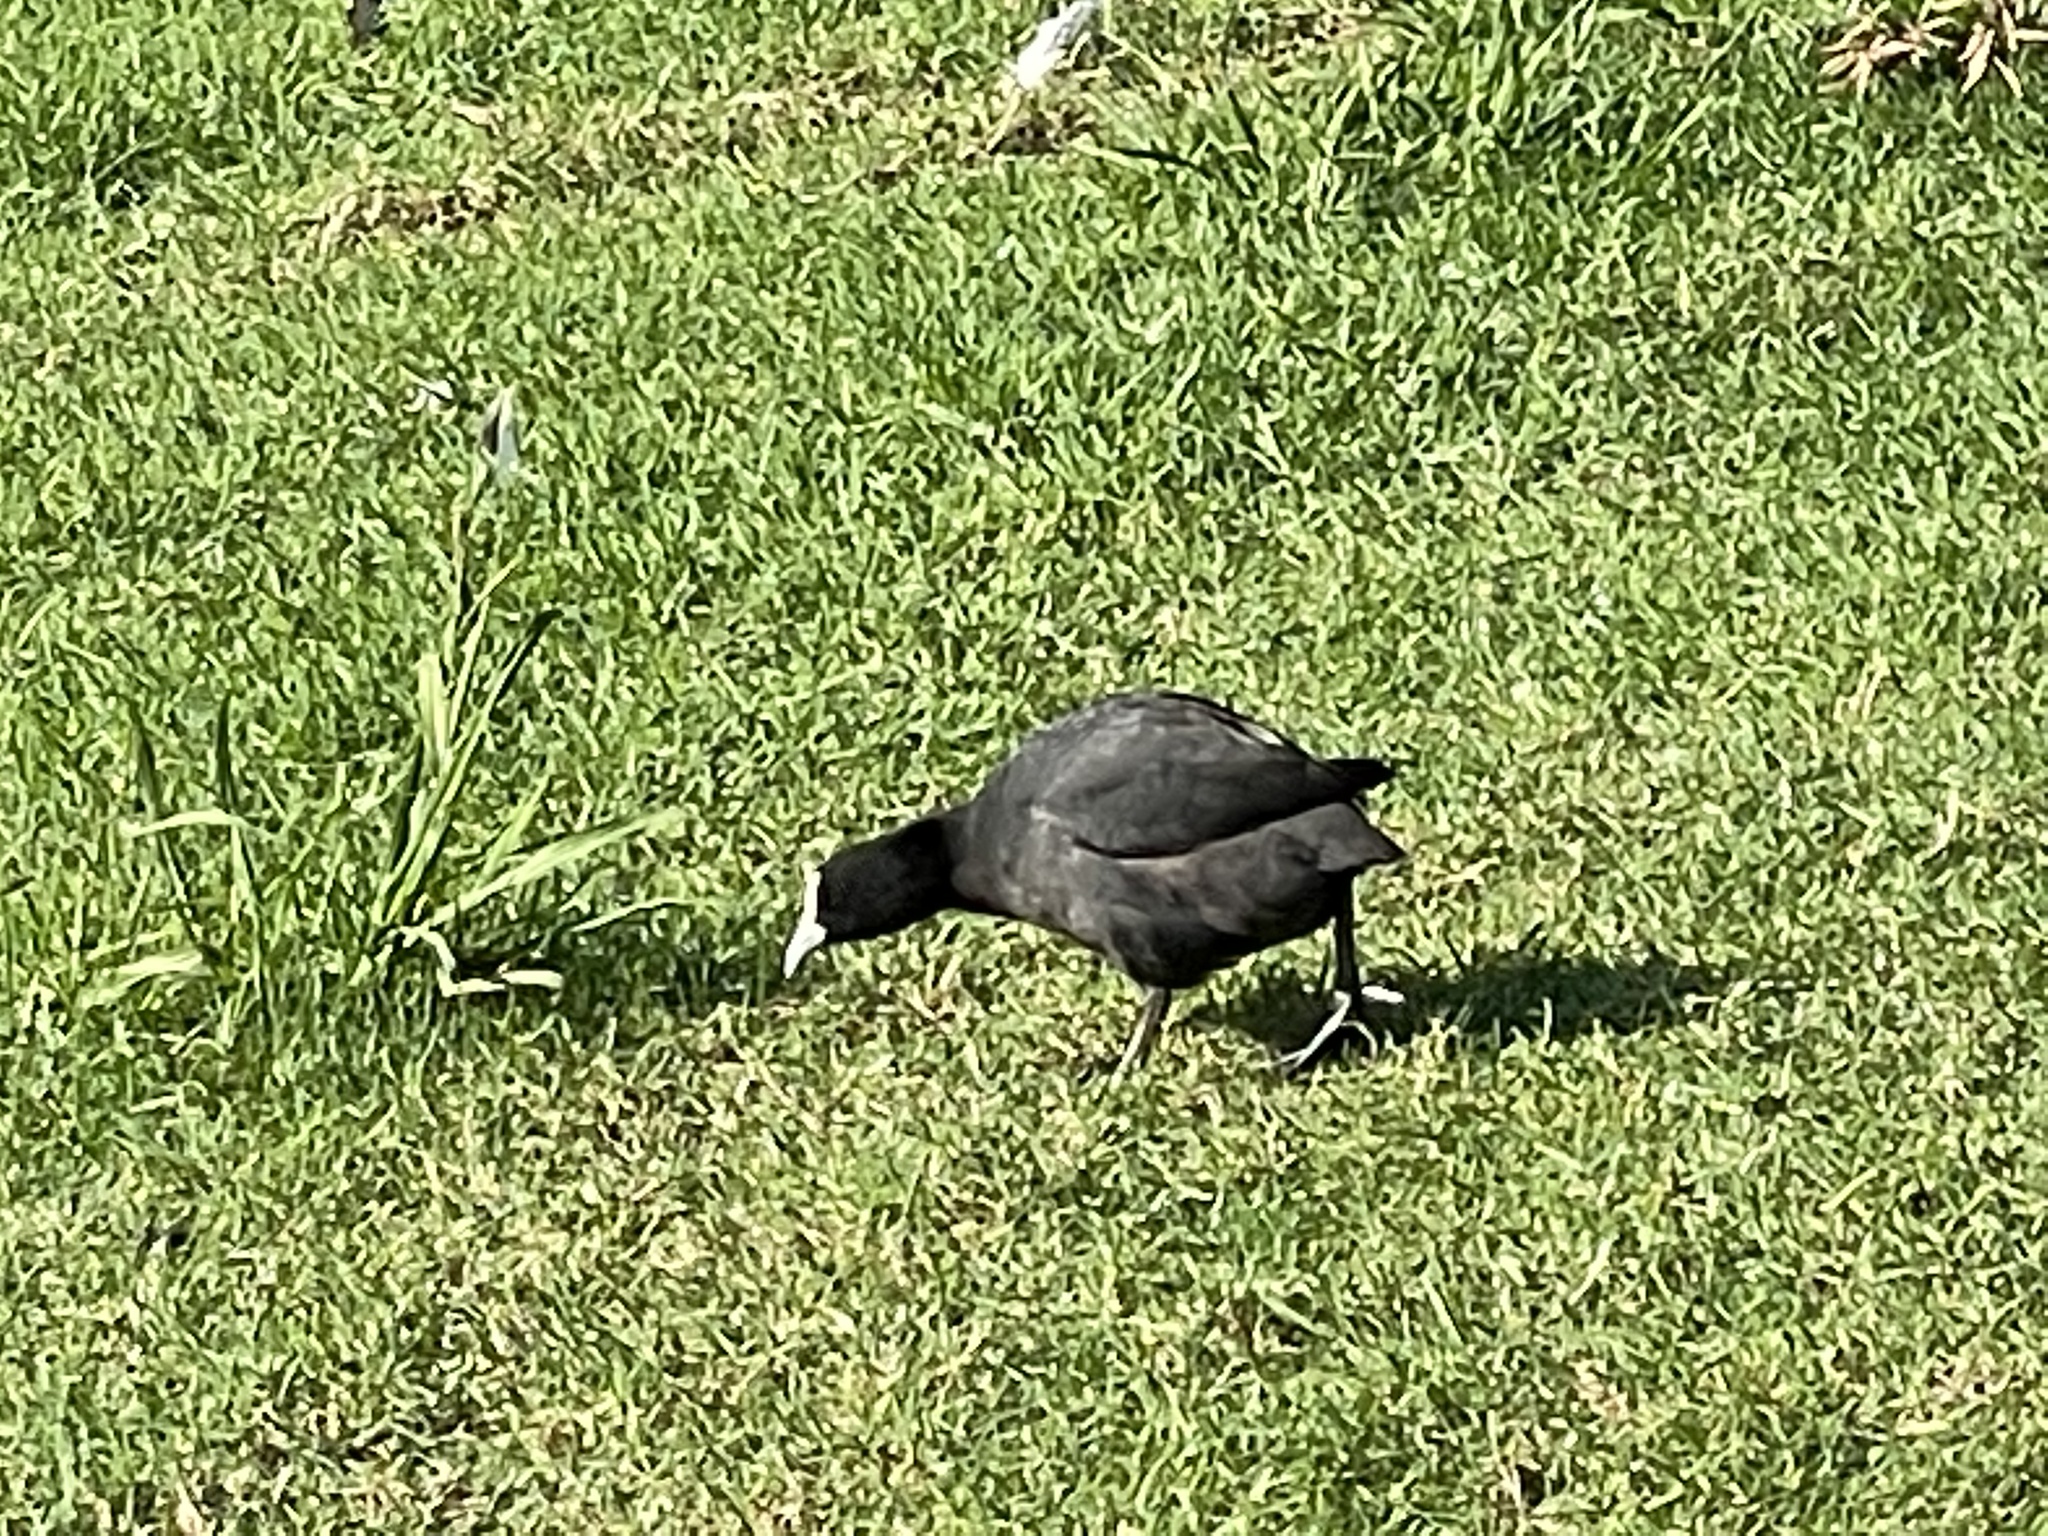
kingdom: Animalia
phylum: Chordata
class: Aves
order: Gruiformes
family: Rallidae
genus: Fulica
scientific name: Fulica atra
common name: Eurasian coot
